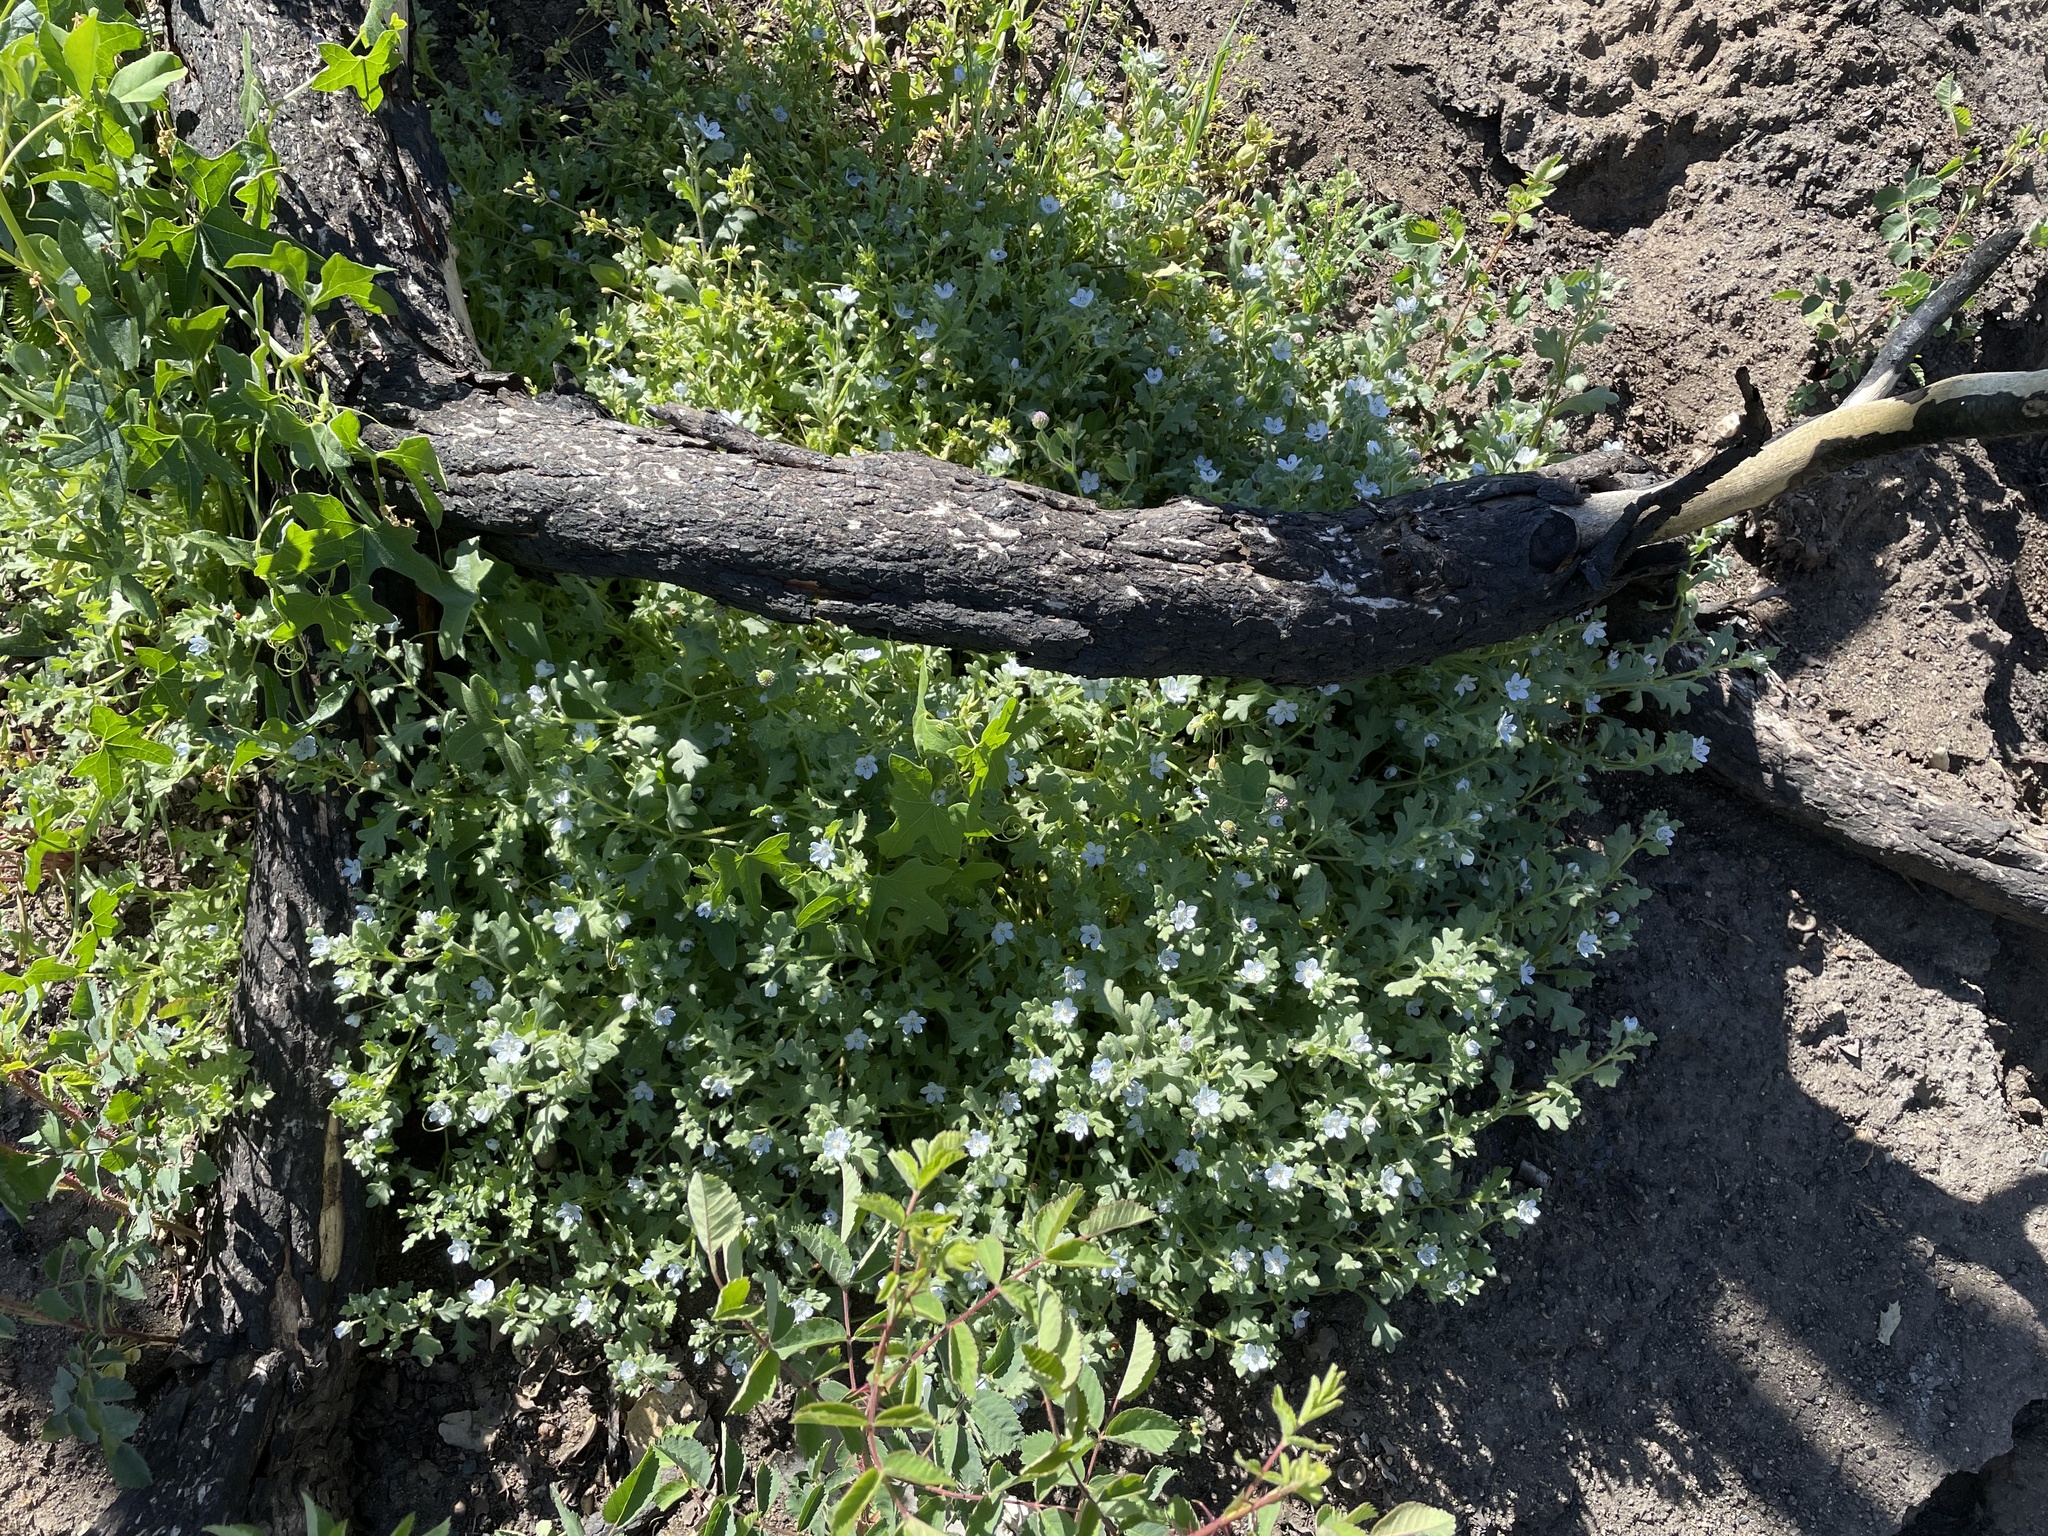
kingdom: Plantae
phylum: Tracheophyta
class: Magnoliopsida
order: Boraginales
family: Hydrophyllaceae
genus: Nemophila
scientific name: Nemophila menziesii
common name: Baby's-blue-eyes
